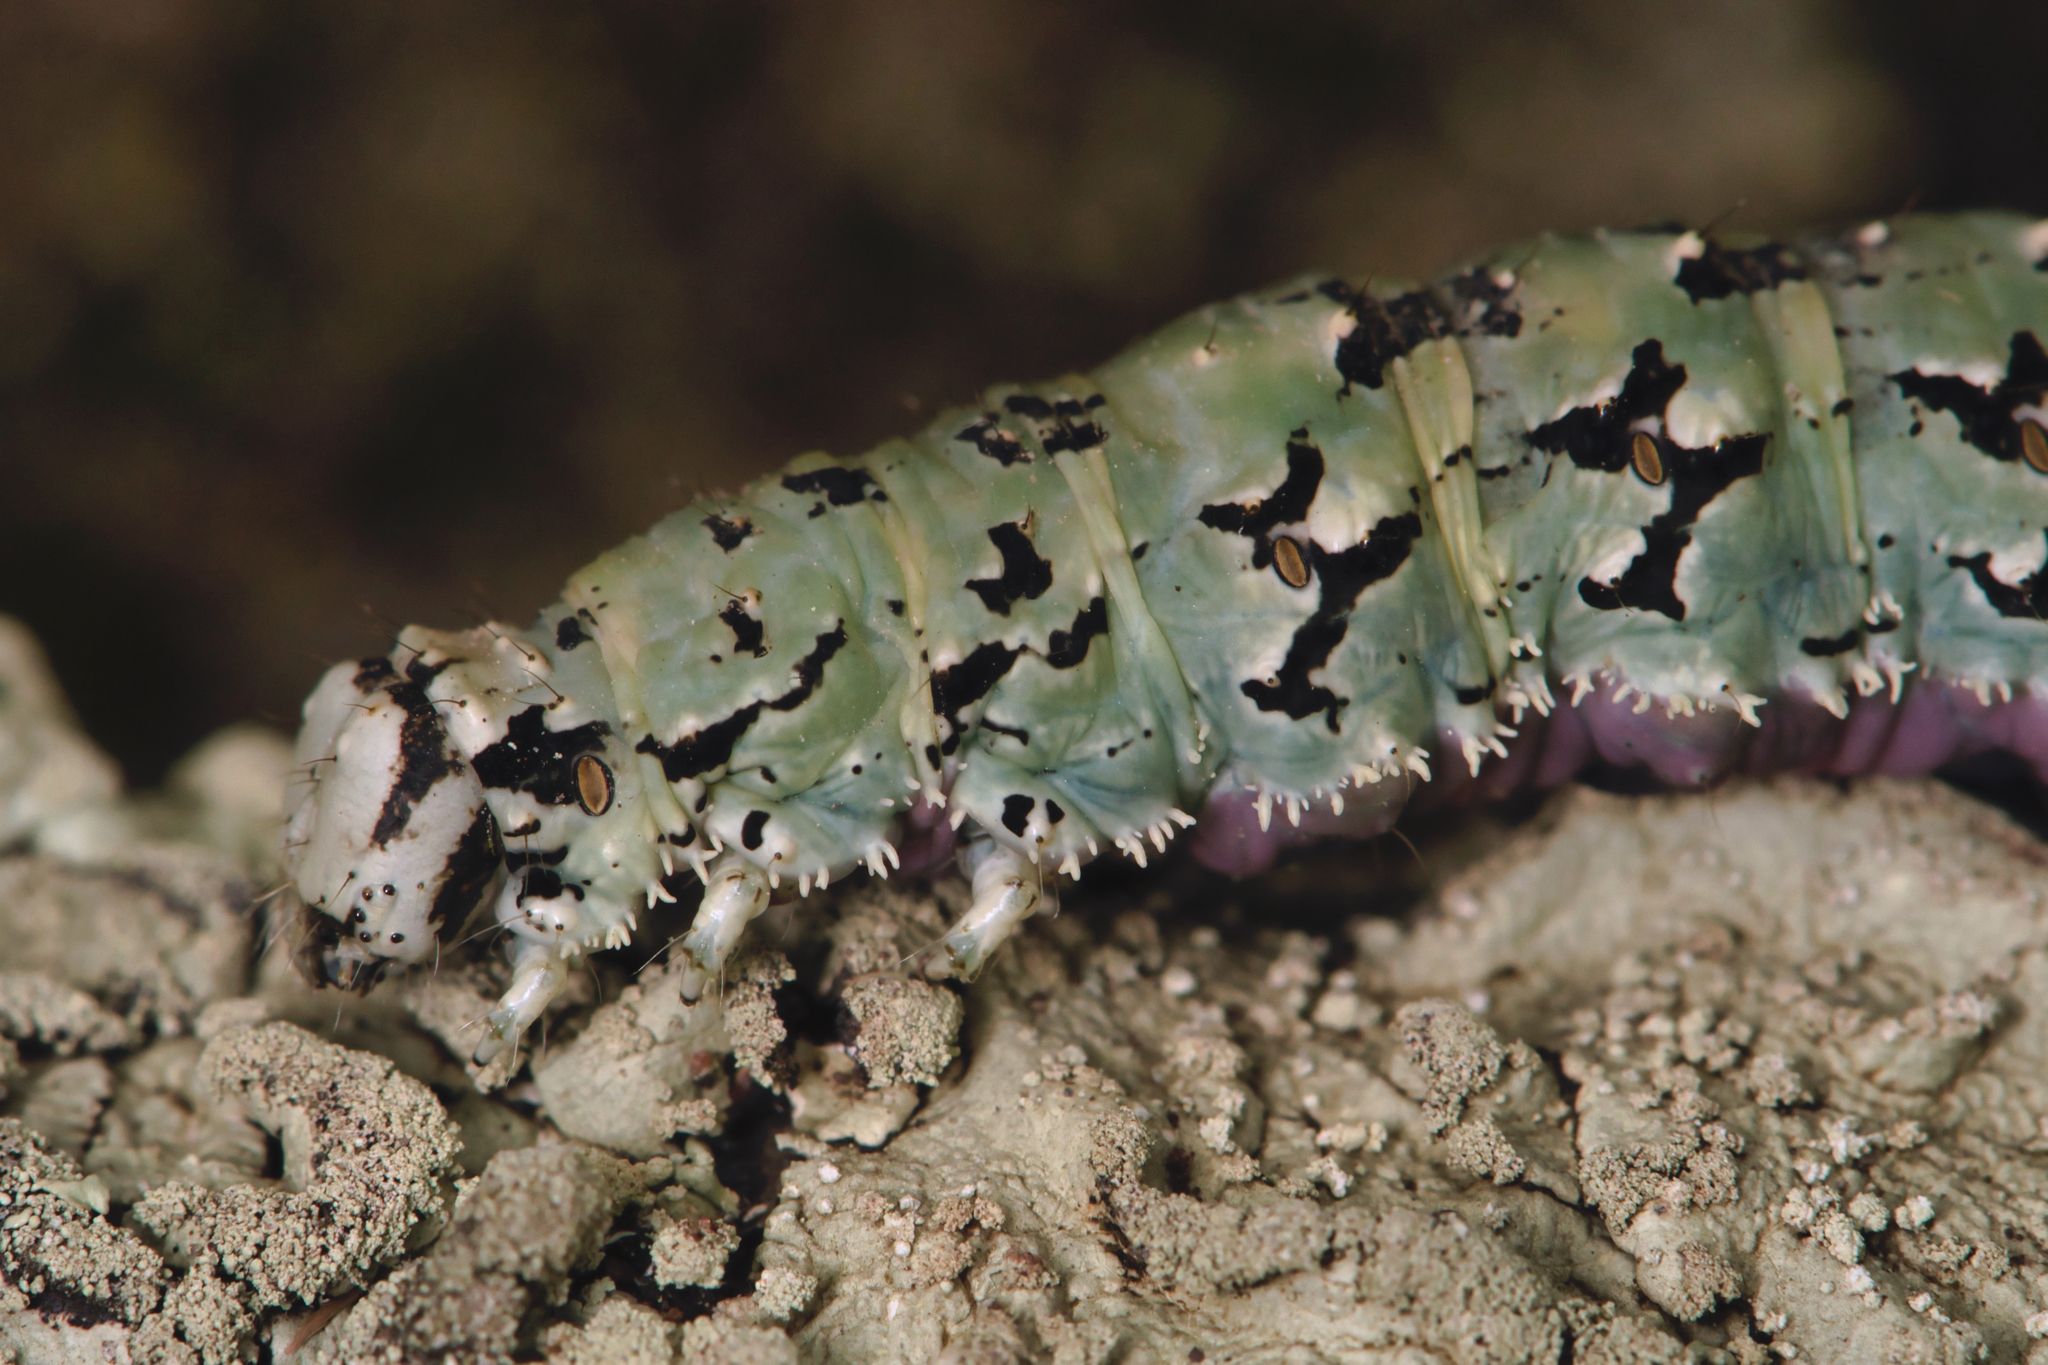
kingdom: Animalia
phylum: Arthropoda
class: Insecta
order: Lepidoptera
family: Erebidae
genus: Catocala
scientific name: Catocala ilia
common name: Ilia underwing
